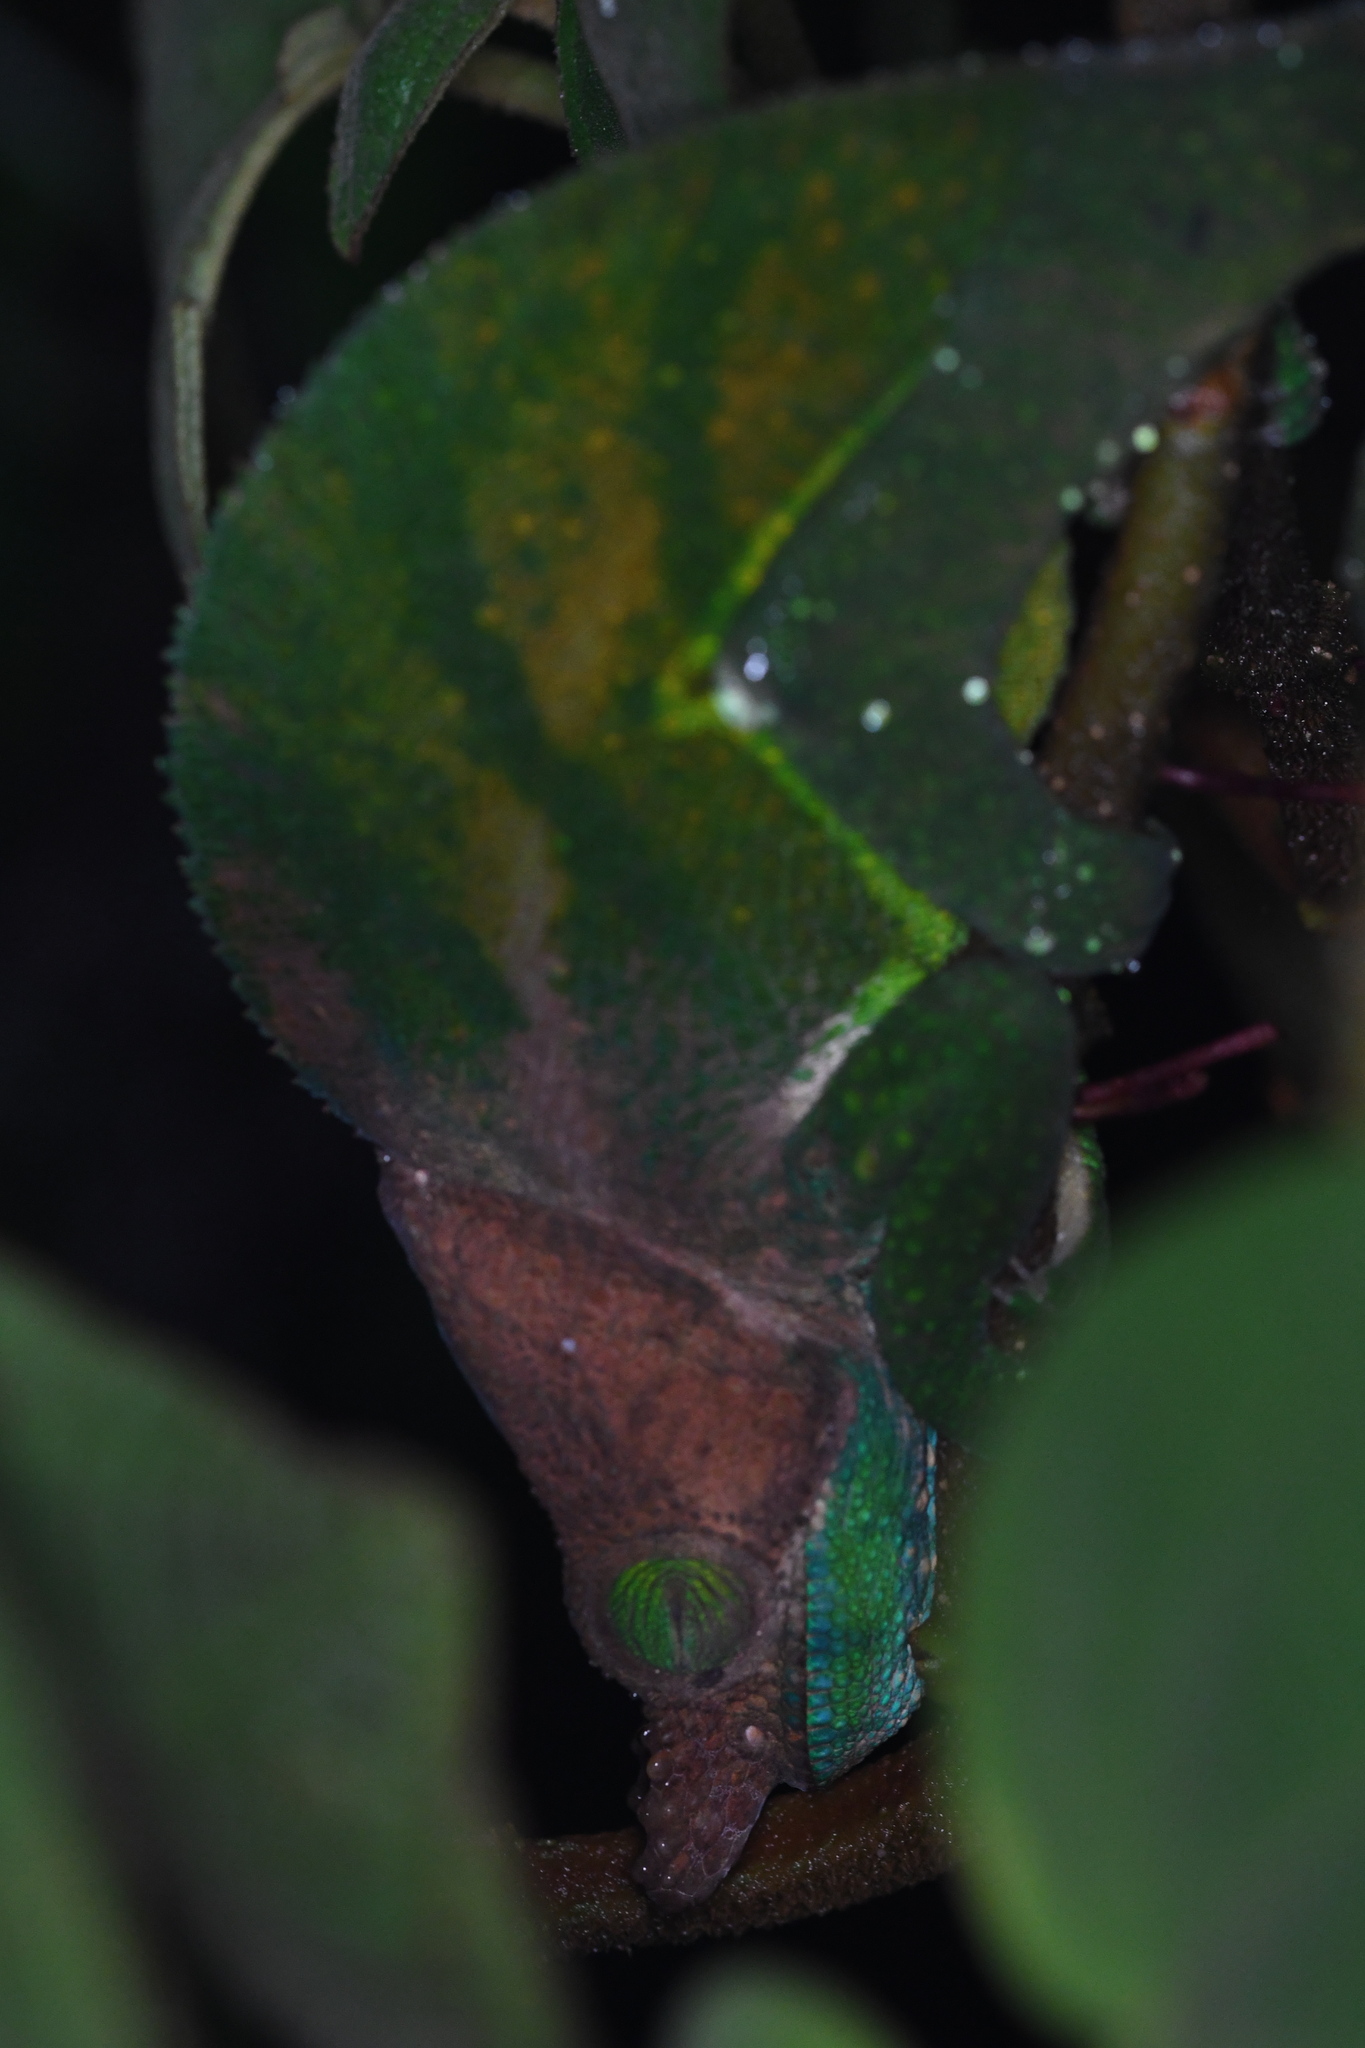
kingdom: Animalia
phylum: Chordata
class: Squamata
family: Chamaeleonidae
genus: Calumma
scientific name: Calumma oshaughnessyi
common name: O'shaughnessy's chameleon
